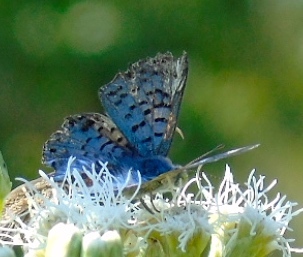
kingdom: Animalia
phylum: Arthropoda
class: Insecta
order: Lepidoptera
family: Riodinidae
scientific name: Riodinidae
